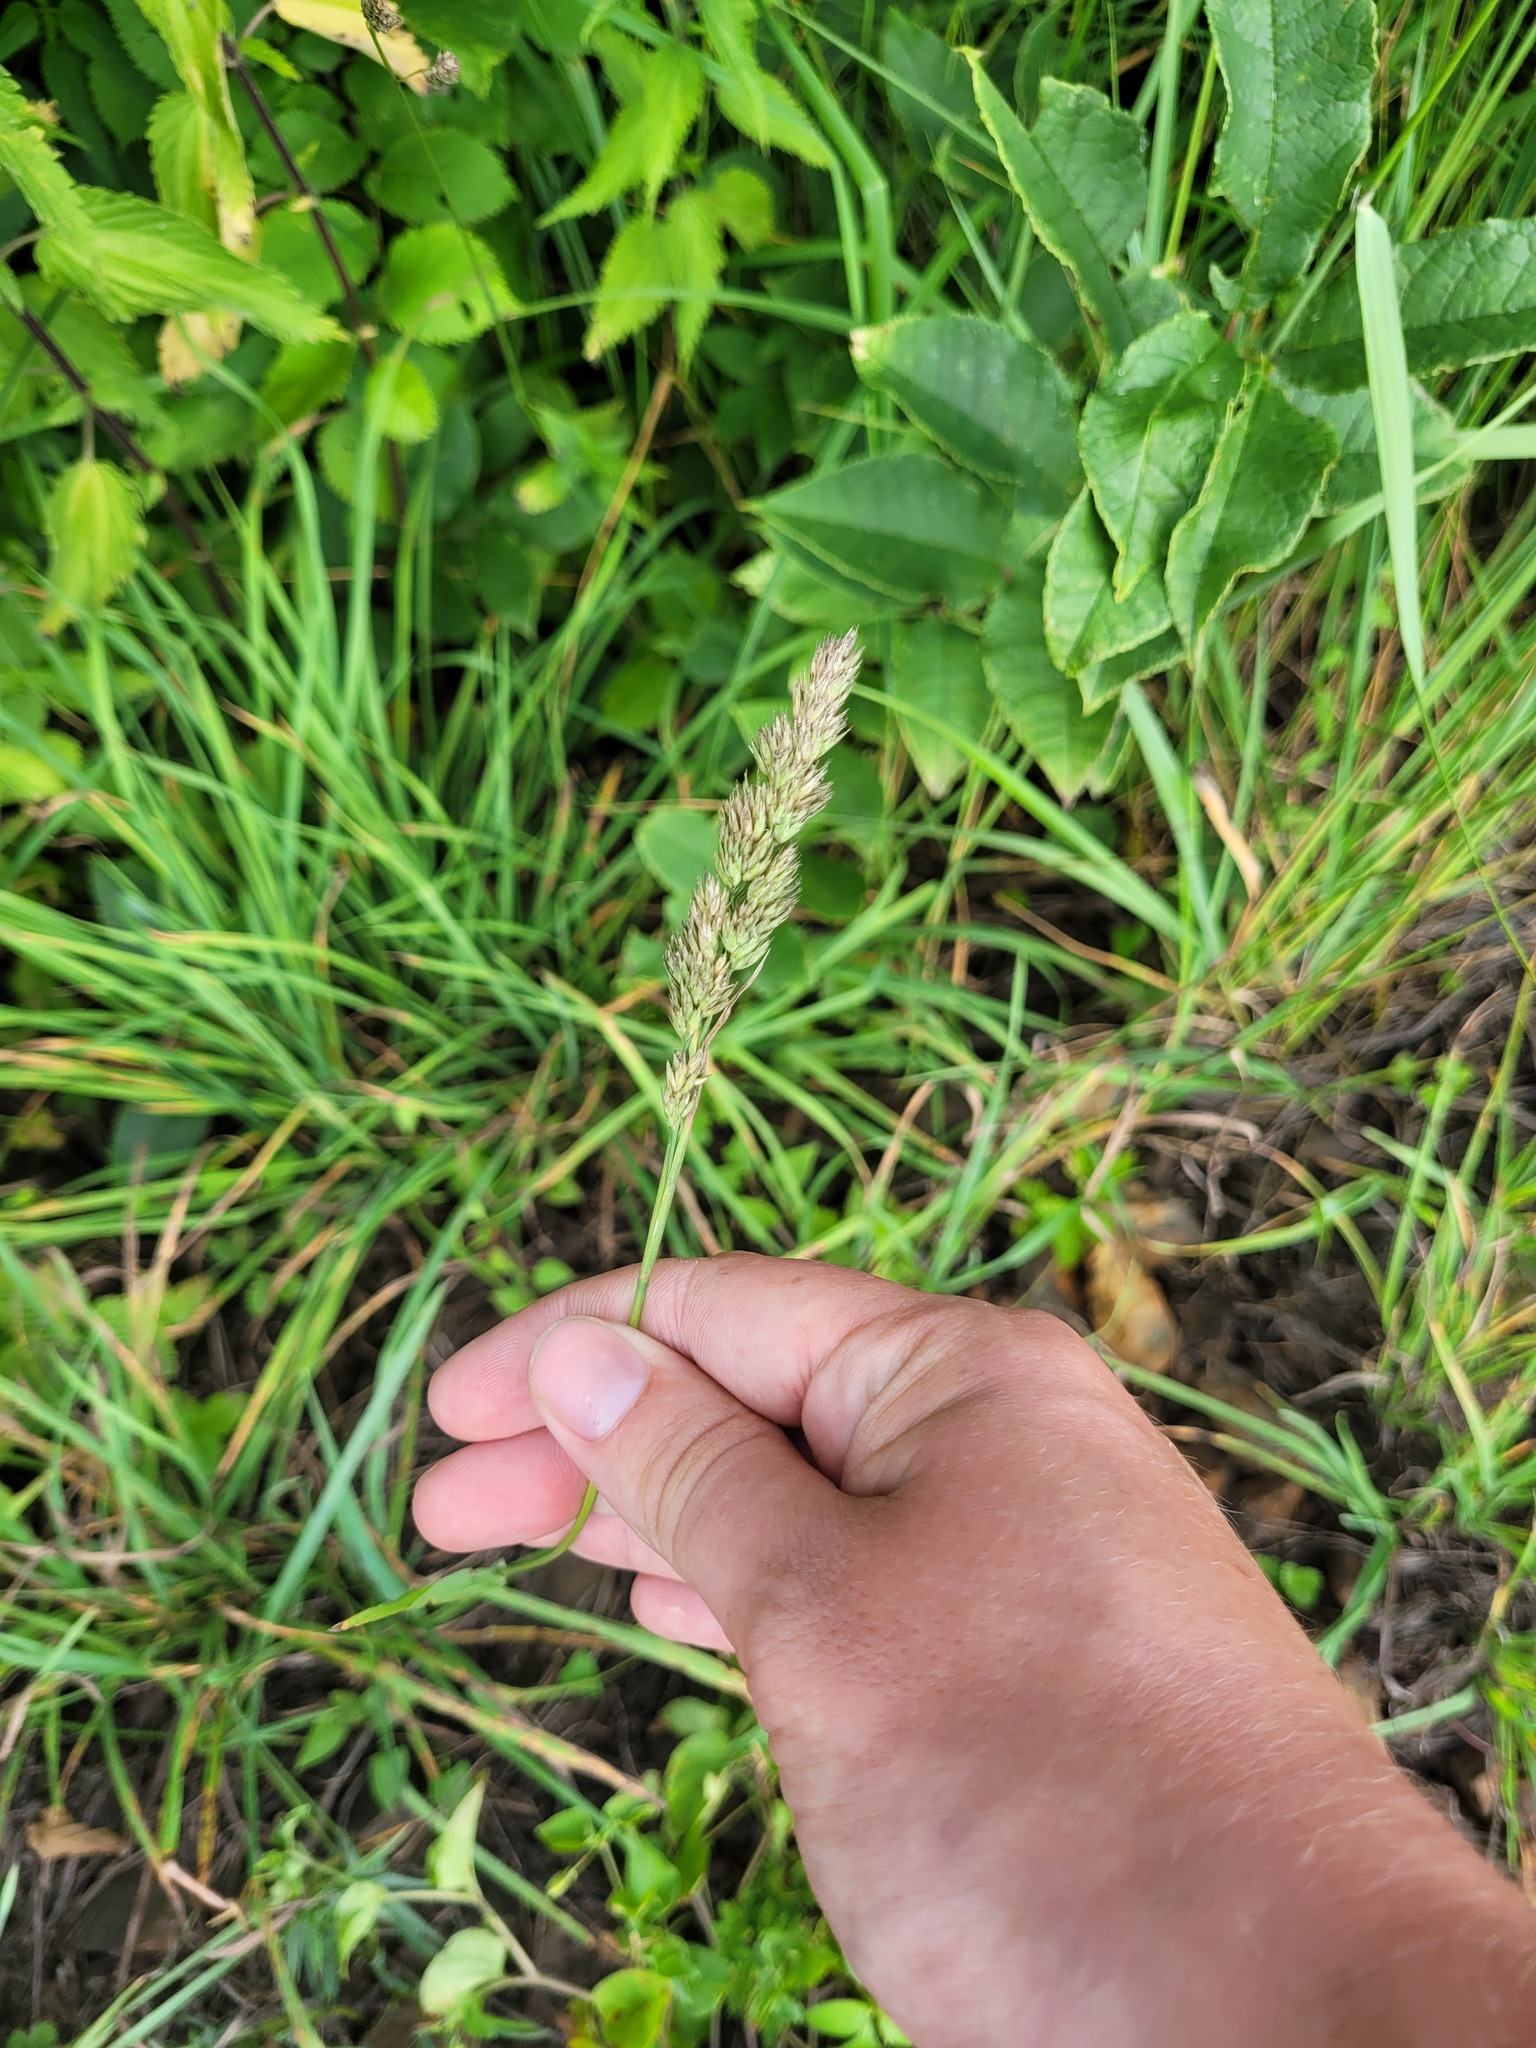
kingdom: Plantae
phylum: Tracheophyta
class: Liliopsida
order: Poales
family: Poaceae
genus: Dactylis
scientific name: Dactylis glomerata
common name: Orchardgrass
